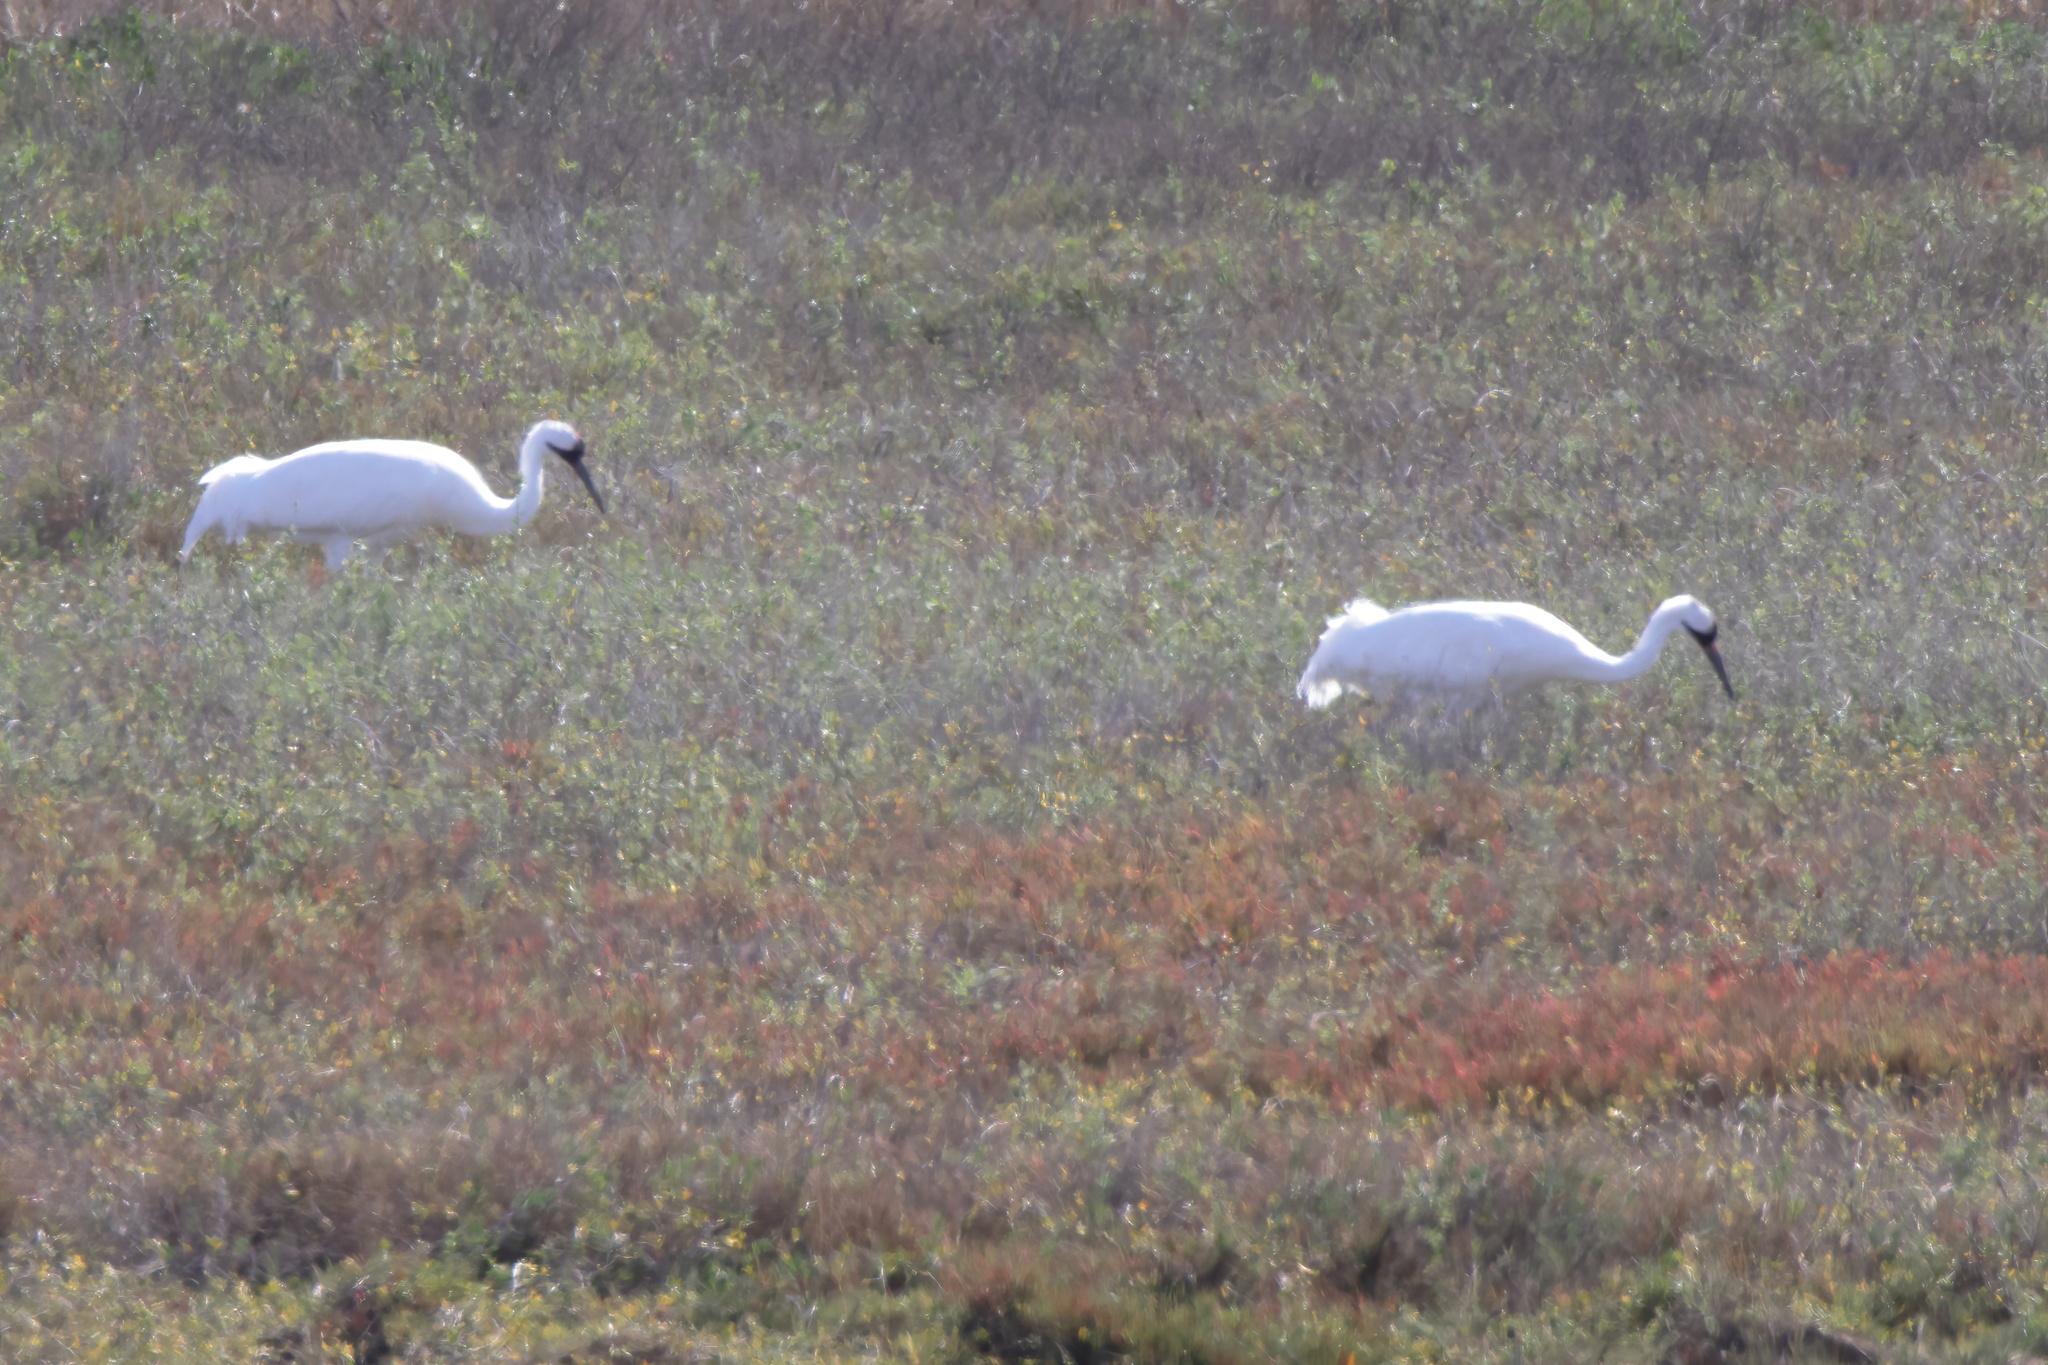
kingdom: Animalia
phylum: Chordata
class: Aves
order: Gruiformes
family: Gruidae
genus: Grus
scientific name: Grus americana
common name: Whooping crane
